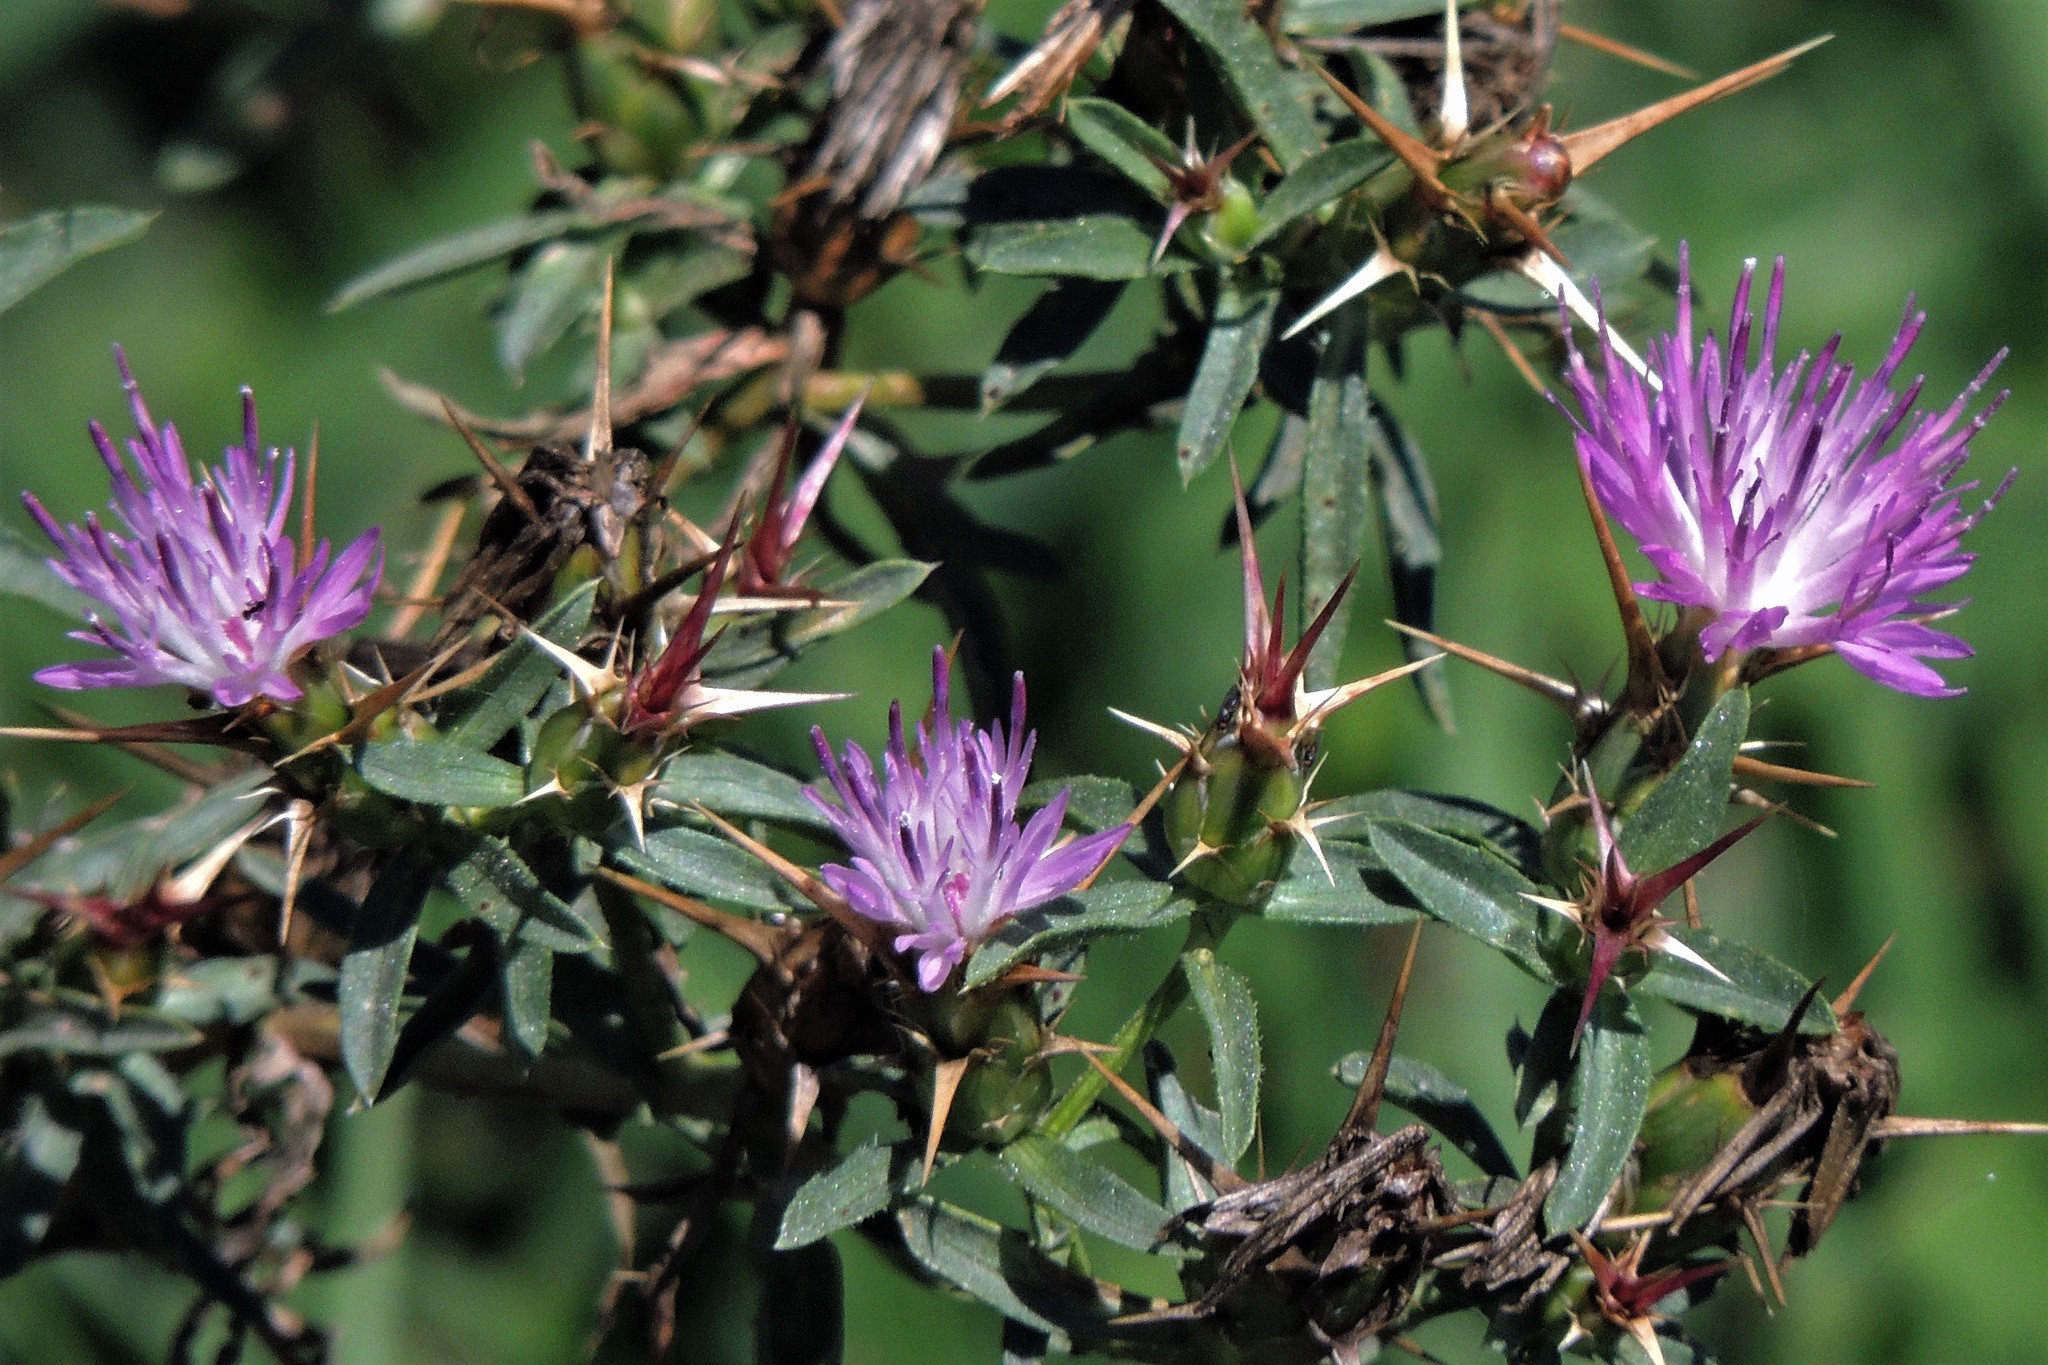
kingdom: Plantae
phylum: Tracheophyta
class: Magnoliopsida
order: Asterales
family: Asteraceae
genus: Centaurea
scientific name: Centaurea calcitrapa
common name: Red star-thistle
